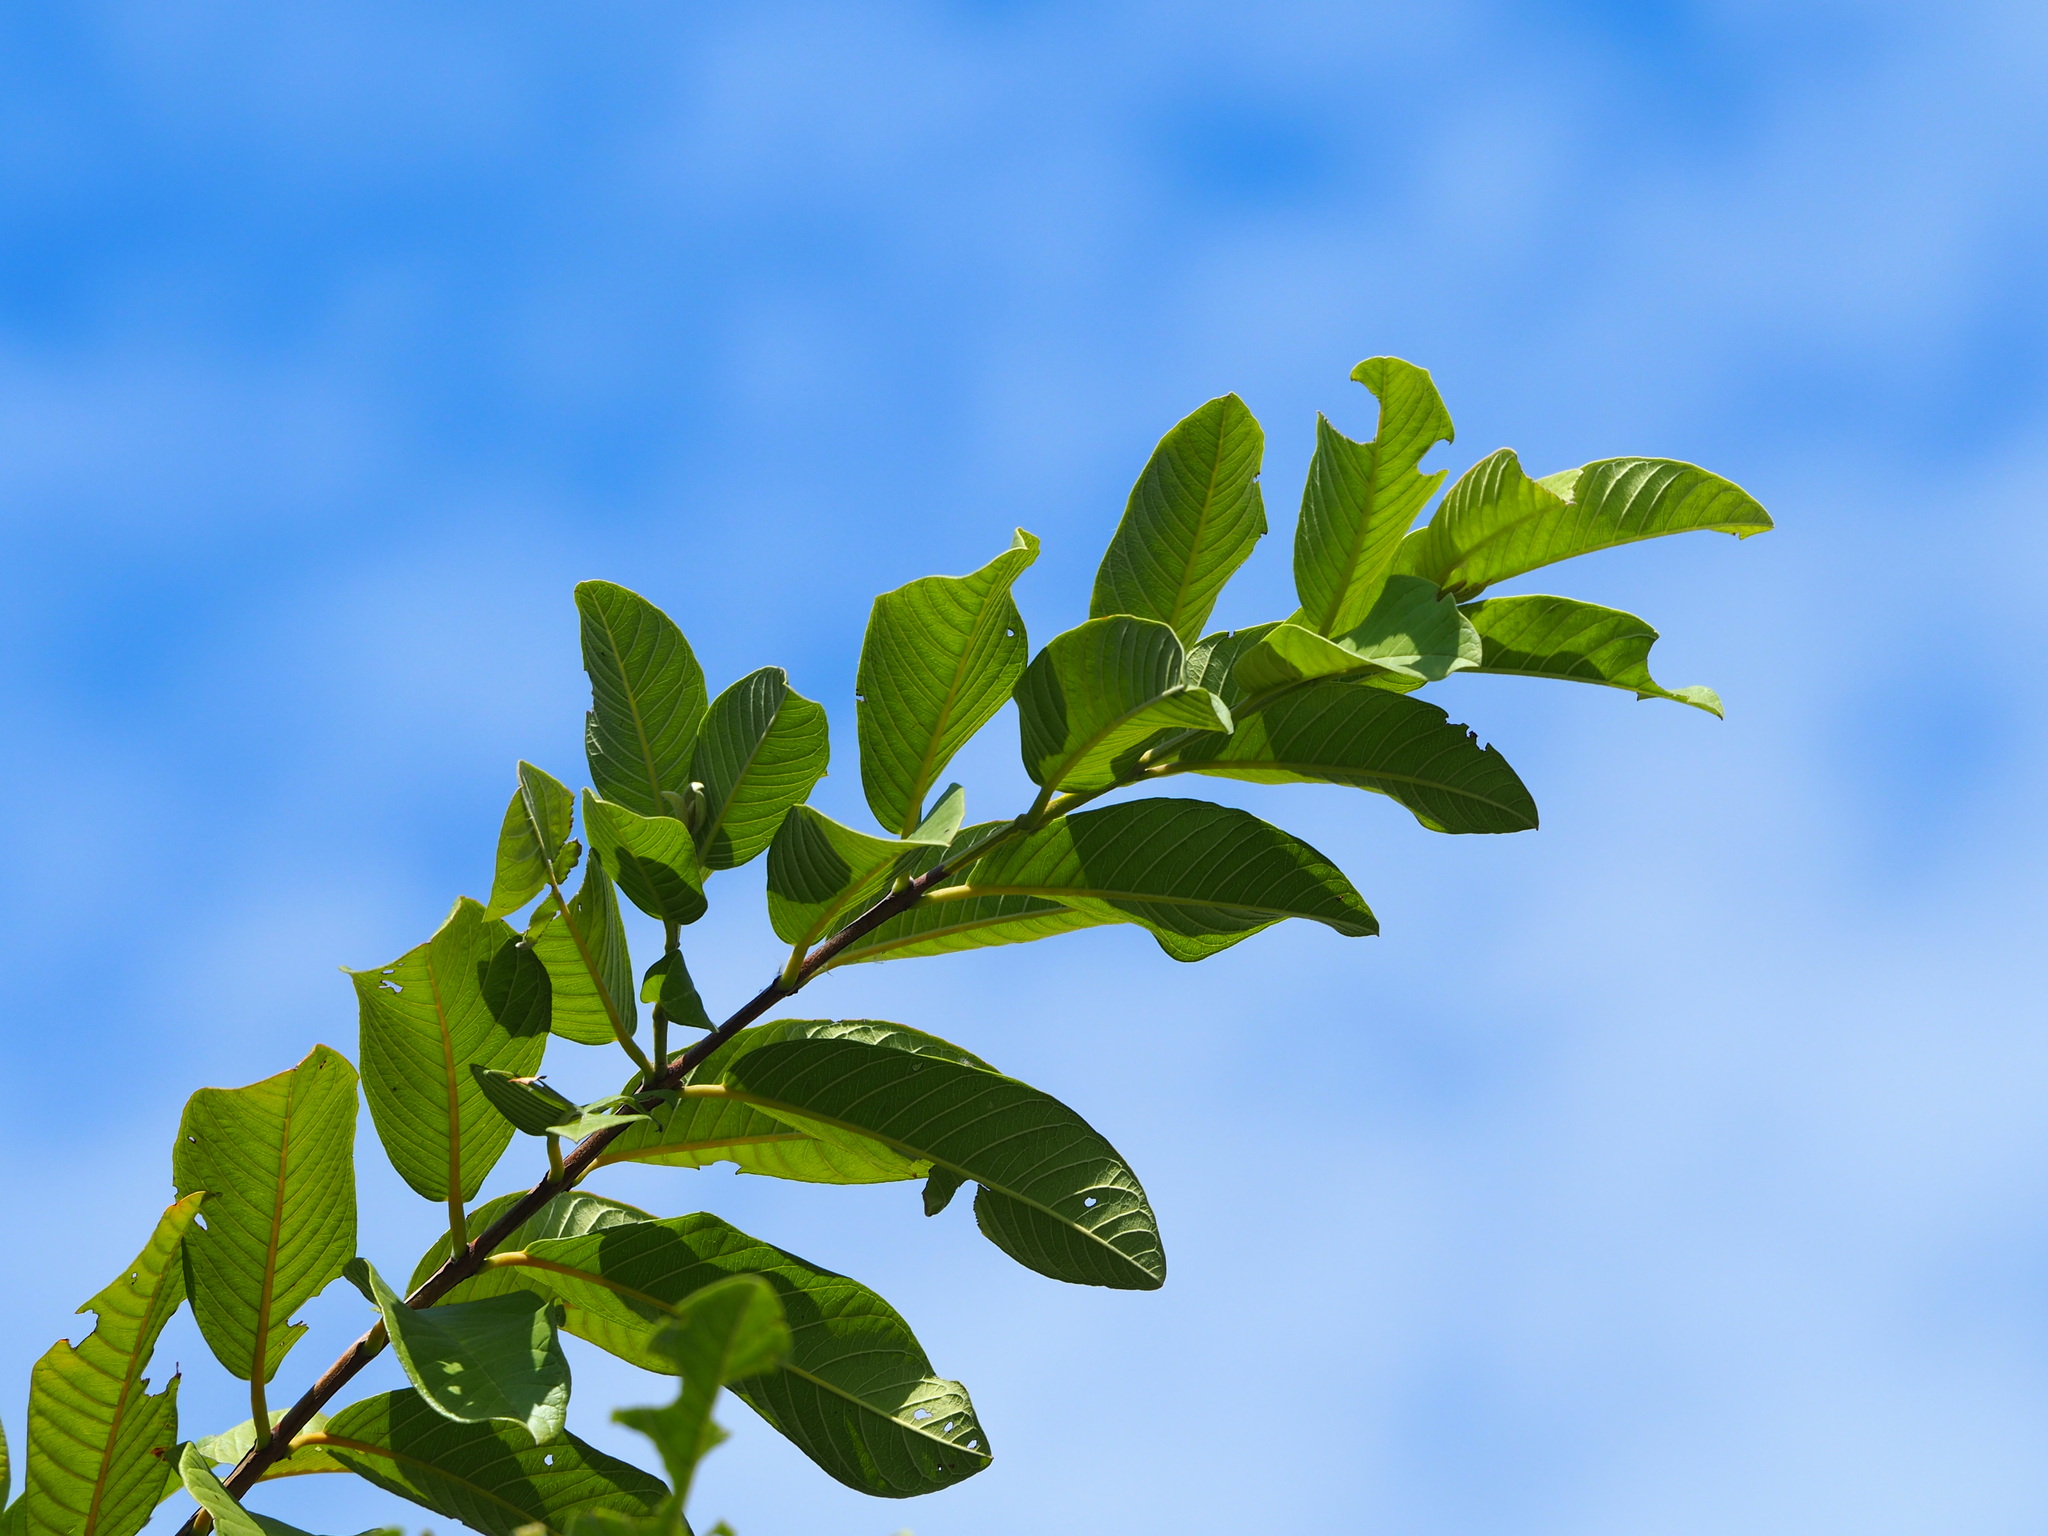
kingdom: Plantae
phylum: Tracheophyta
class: Magnoliopsida
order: Myrtales
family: Myrtaceae
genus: Psidium
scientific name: Psidium guajava
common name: Guava
